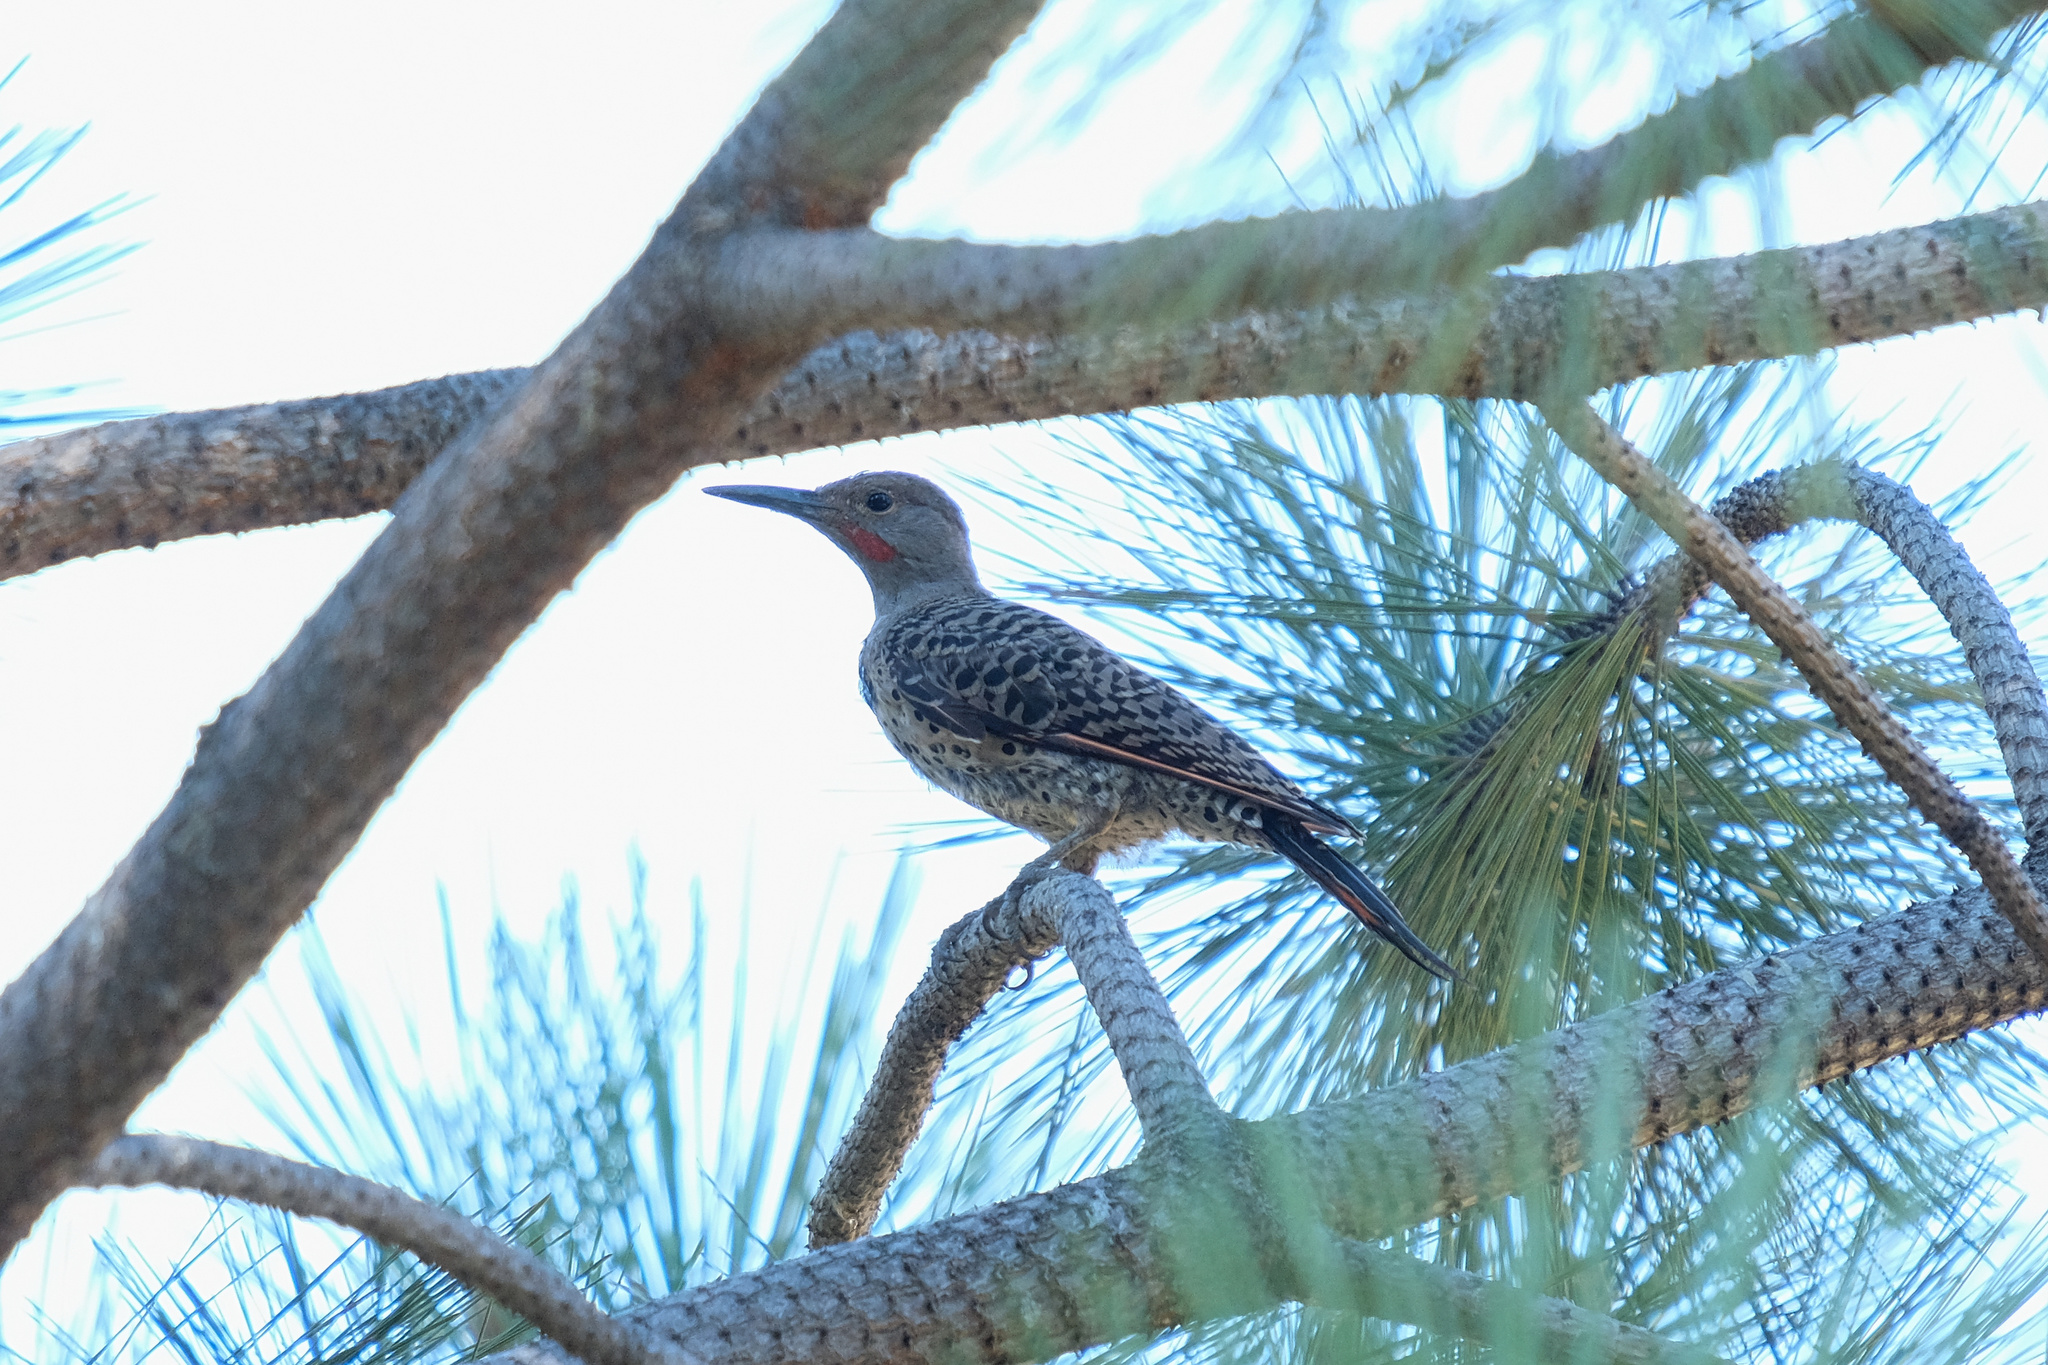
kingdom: Animalia
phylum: Chordata
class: Aves
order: Piciformes
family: Picidae
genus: Colaptes
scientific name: Colaptes auratus
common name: Northern flicker
